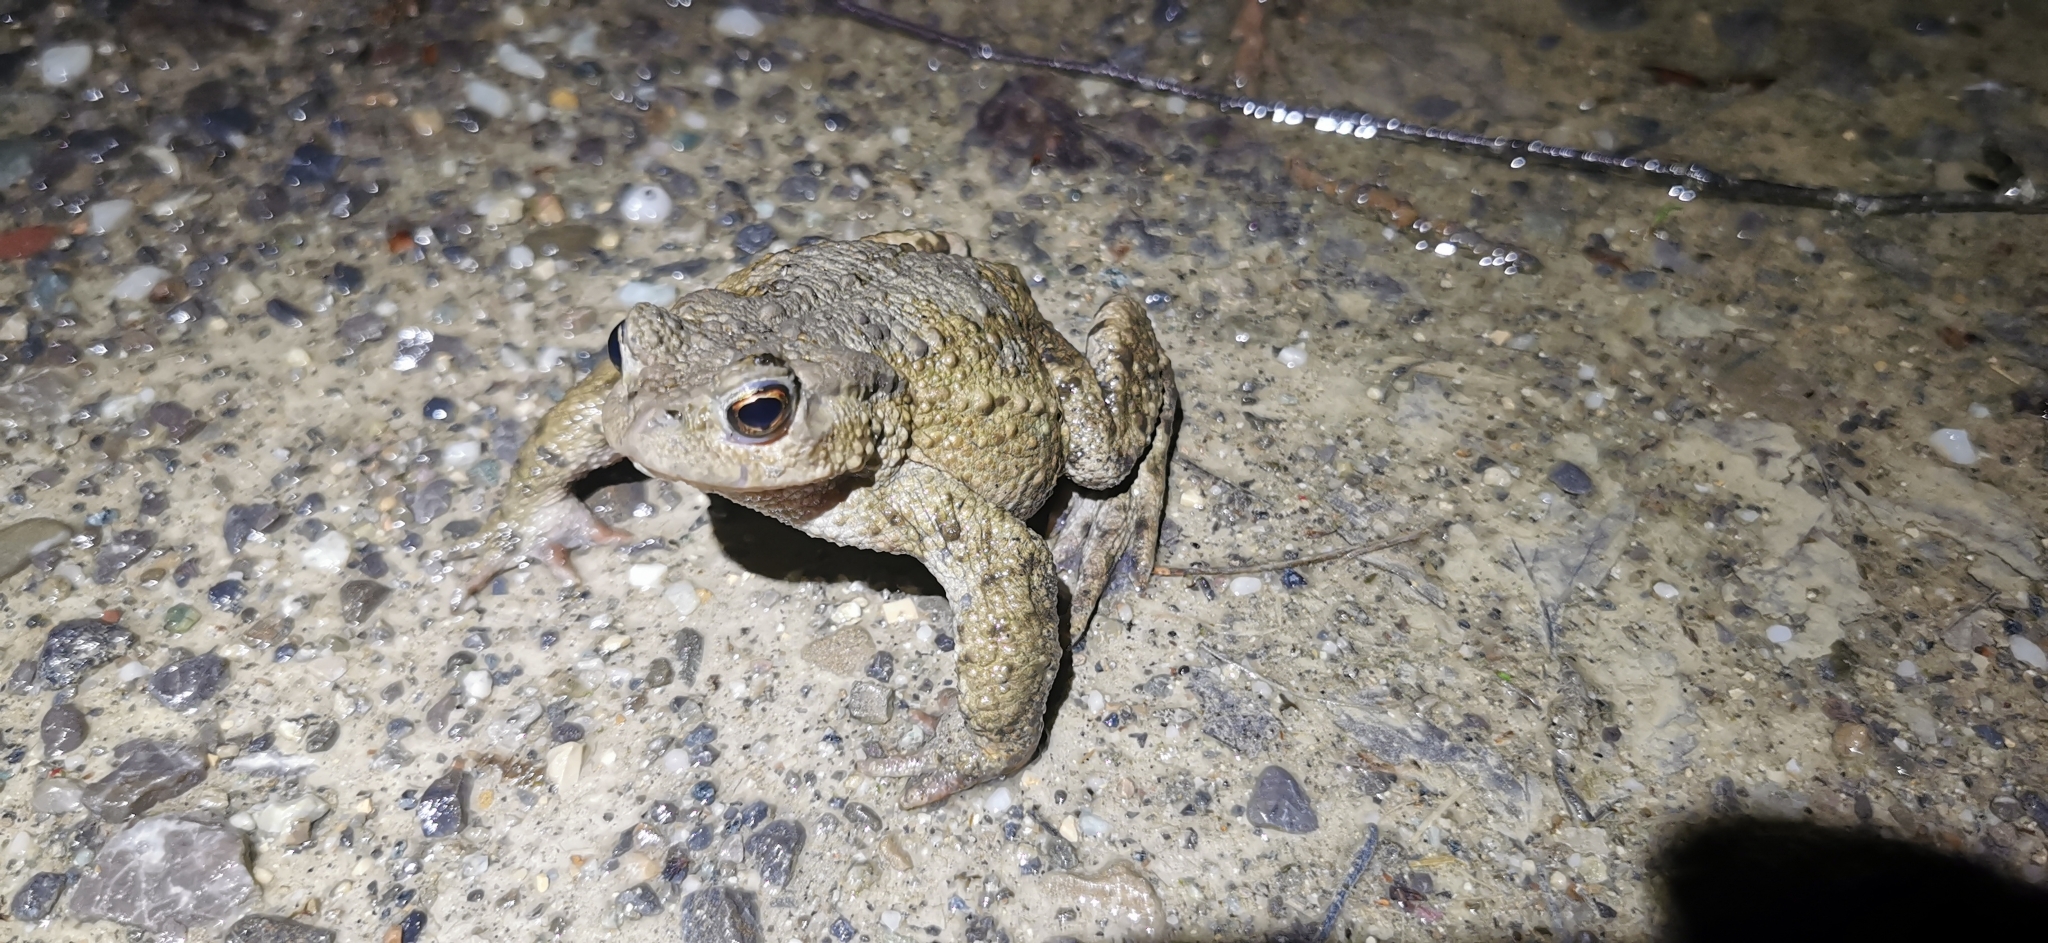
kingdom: Animalia
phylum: Chordata
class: Amphibia
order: Anura
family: Bufonidae
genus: Bufo
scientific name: Bufo bufo
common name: Common toad
